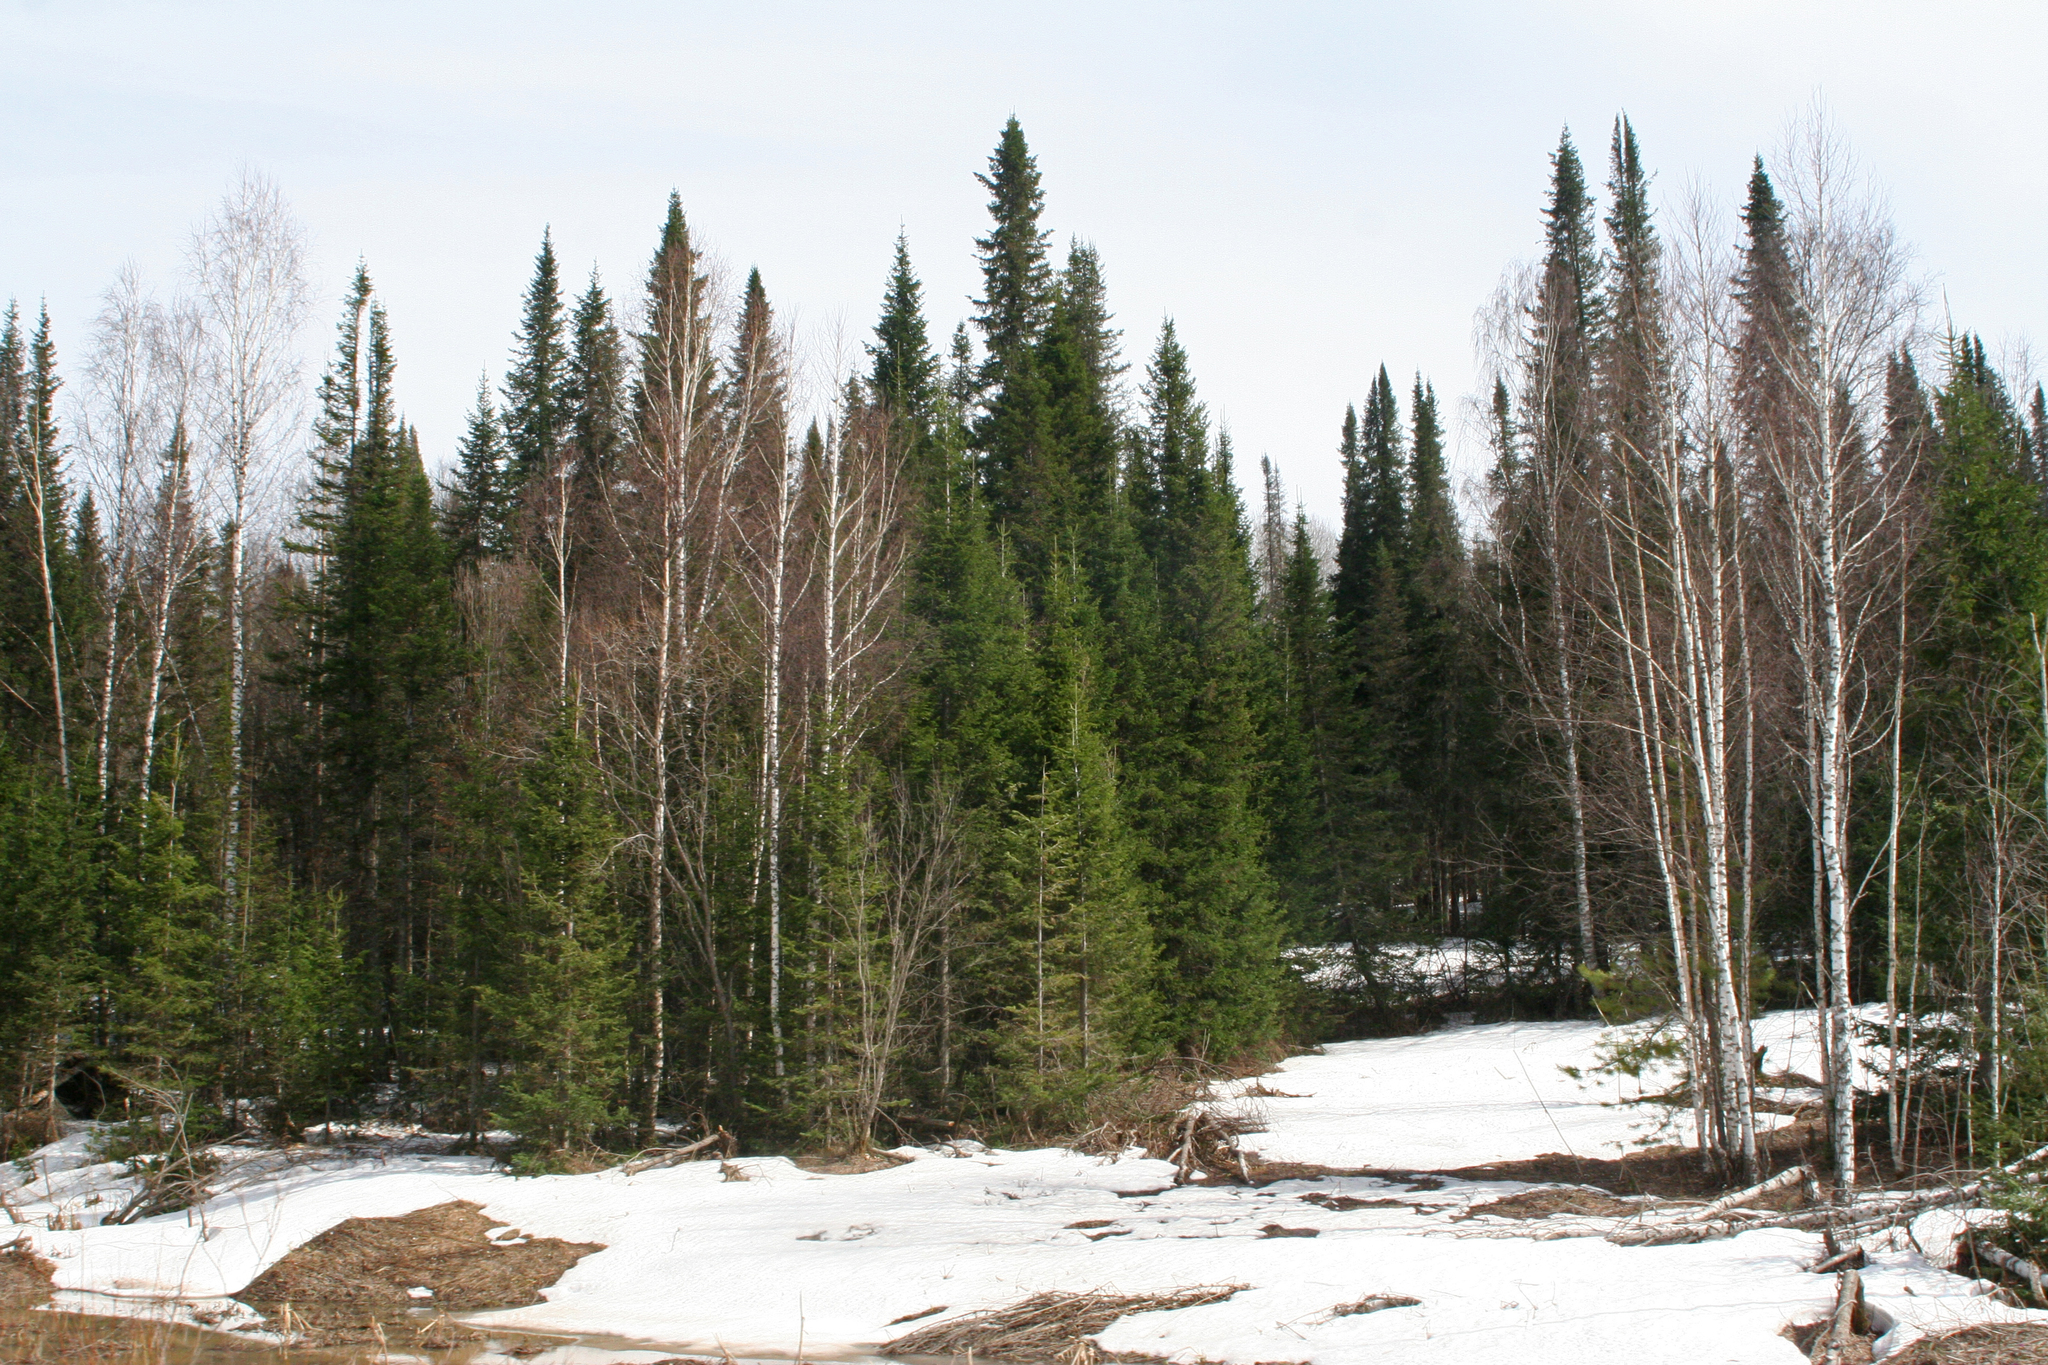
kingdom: Plantae
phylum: Tracheophyta
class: Pinopsida
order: Pinales
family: Pinaceae
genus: Abies
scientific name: Abies sibirica
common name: Siberian fir
